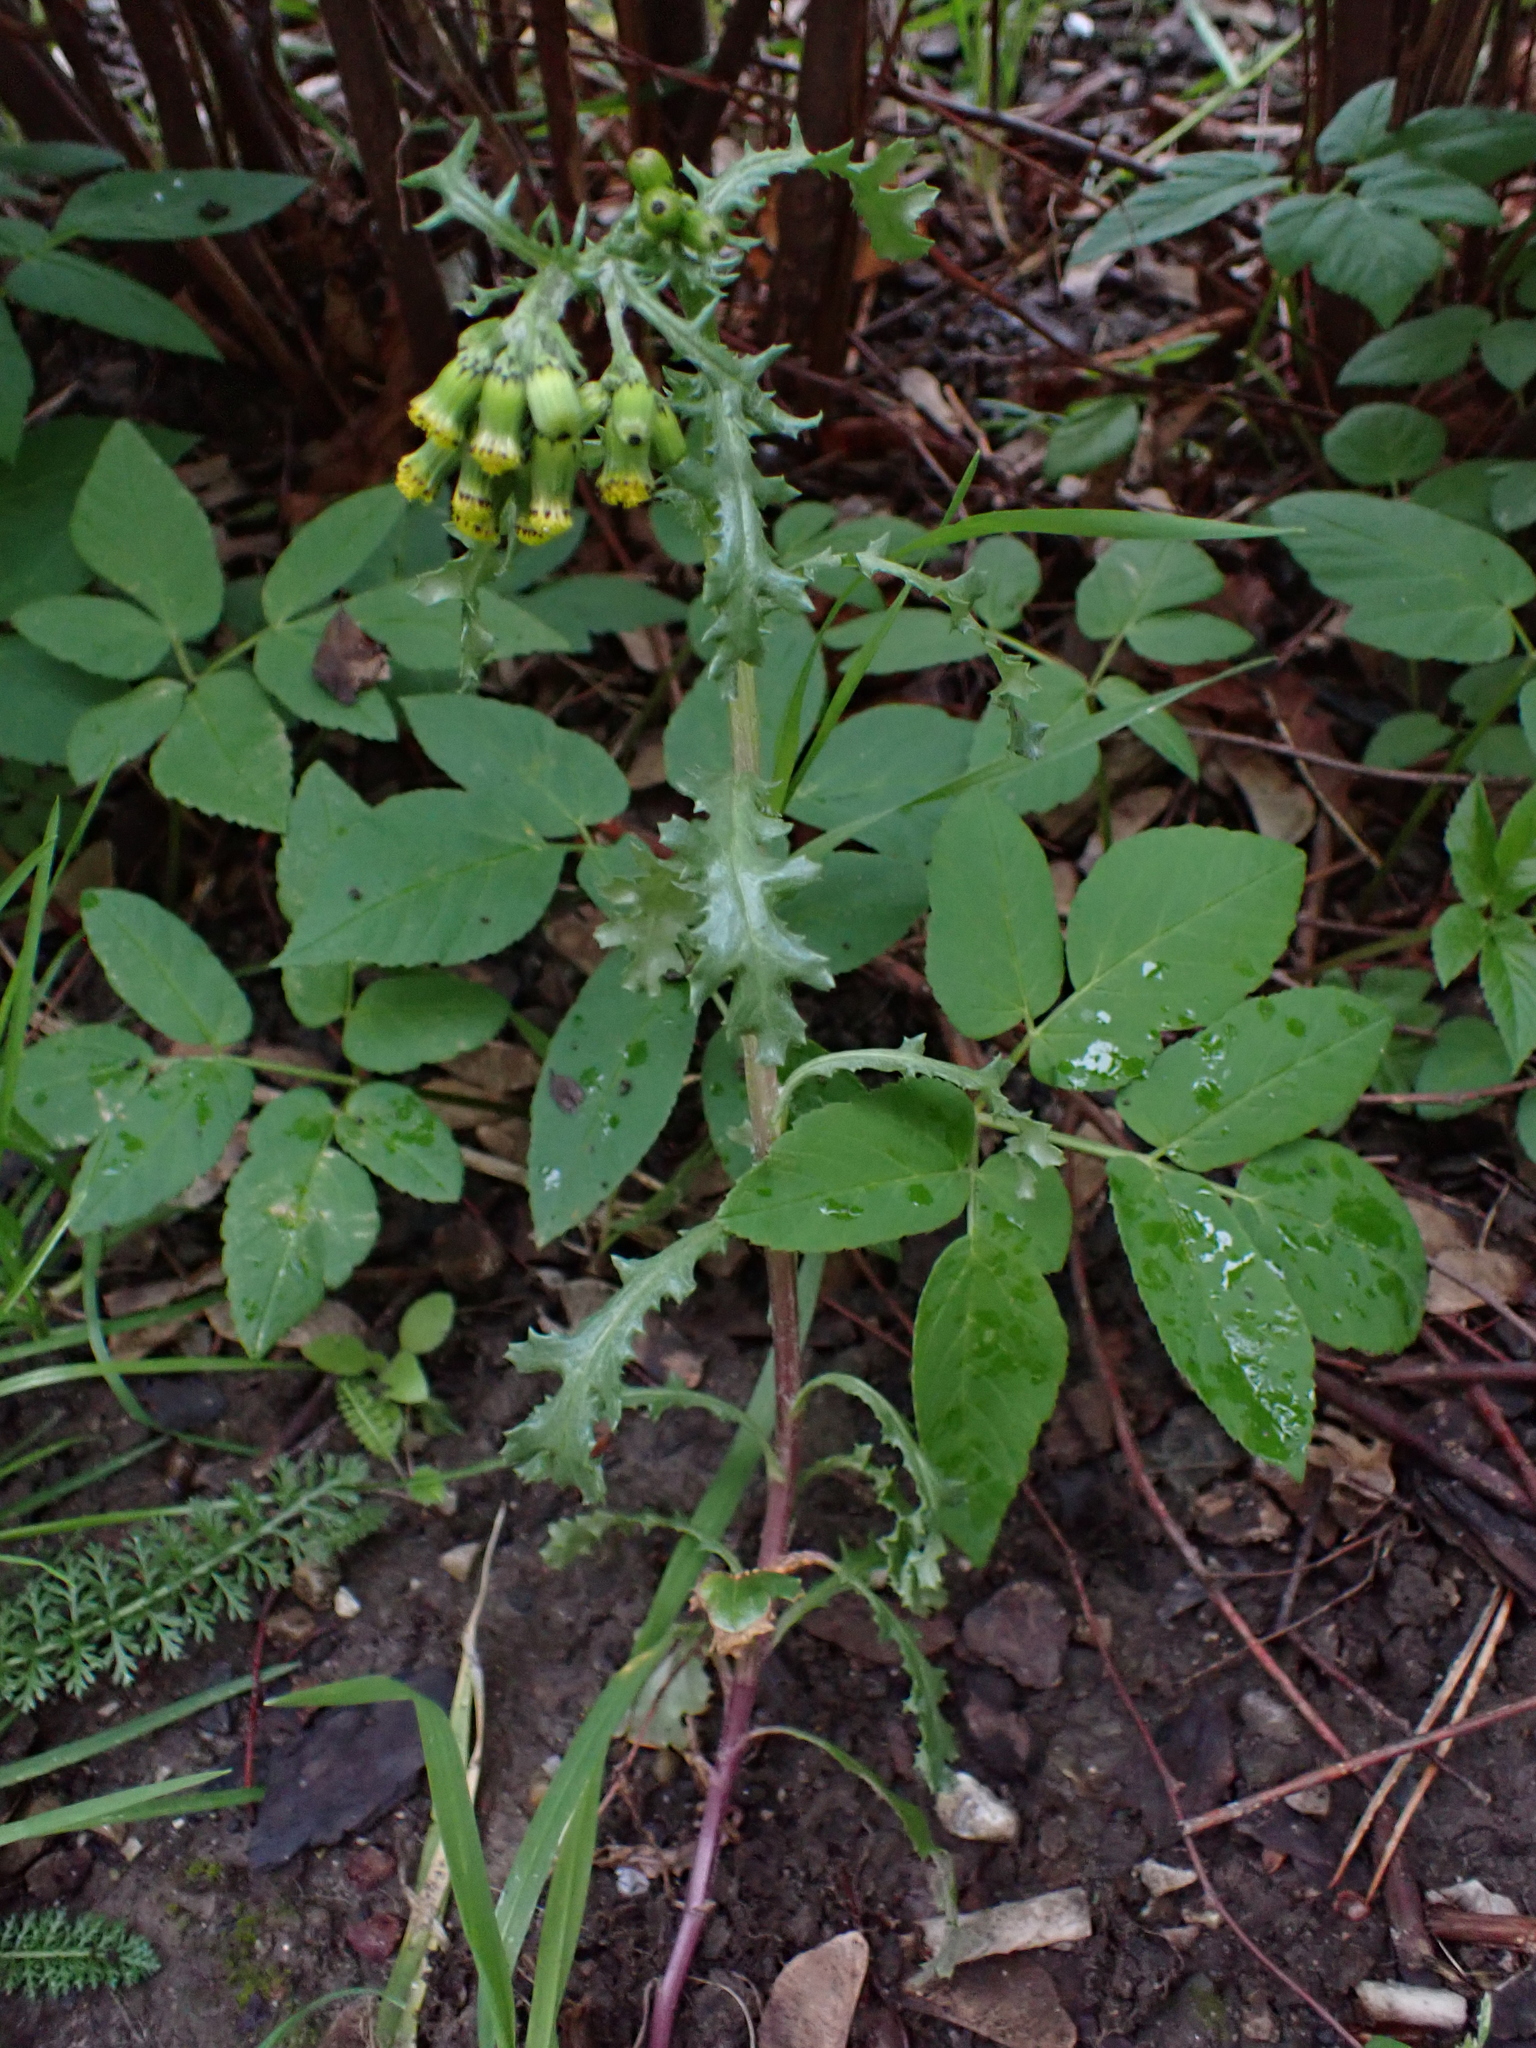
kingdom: Fungi
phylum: Basidiomycota
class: Pucciniomycetes
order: Pucciniales
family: Pucciniaceae
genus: Puccinia
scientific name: Puccinia lagenophorae
